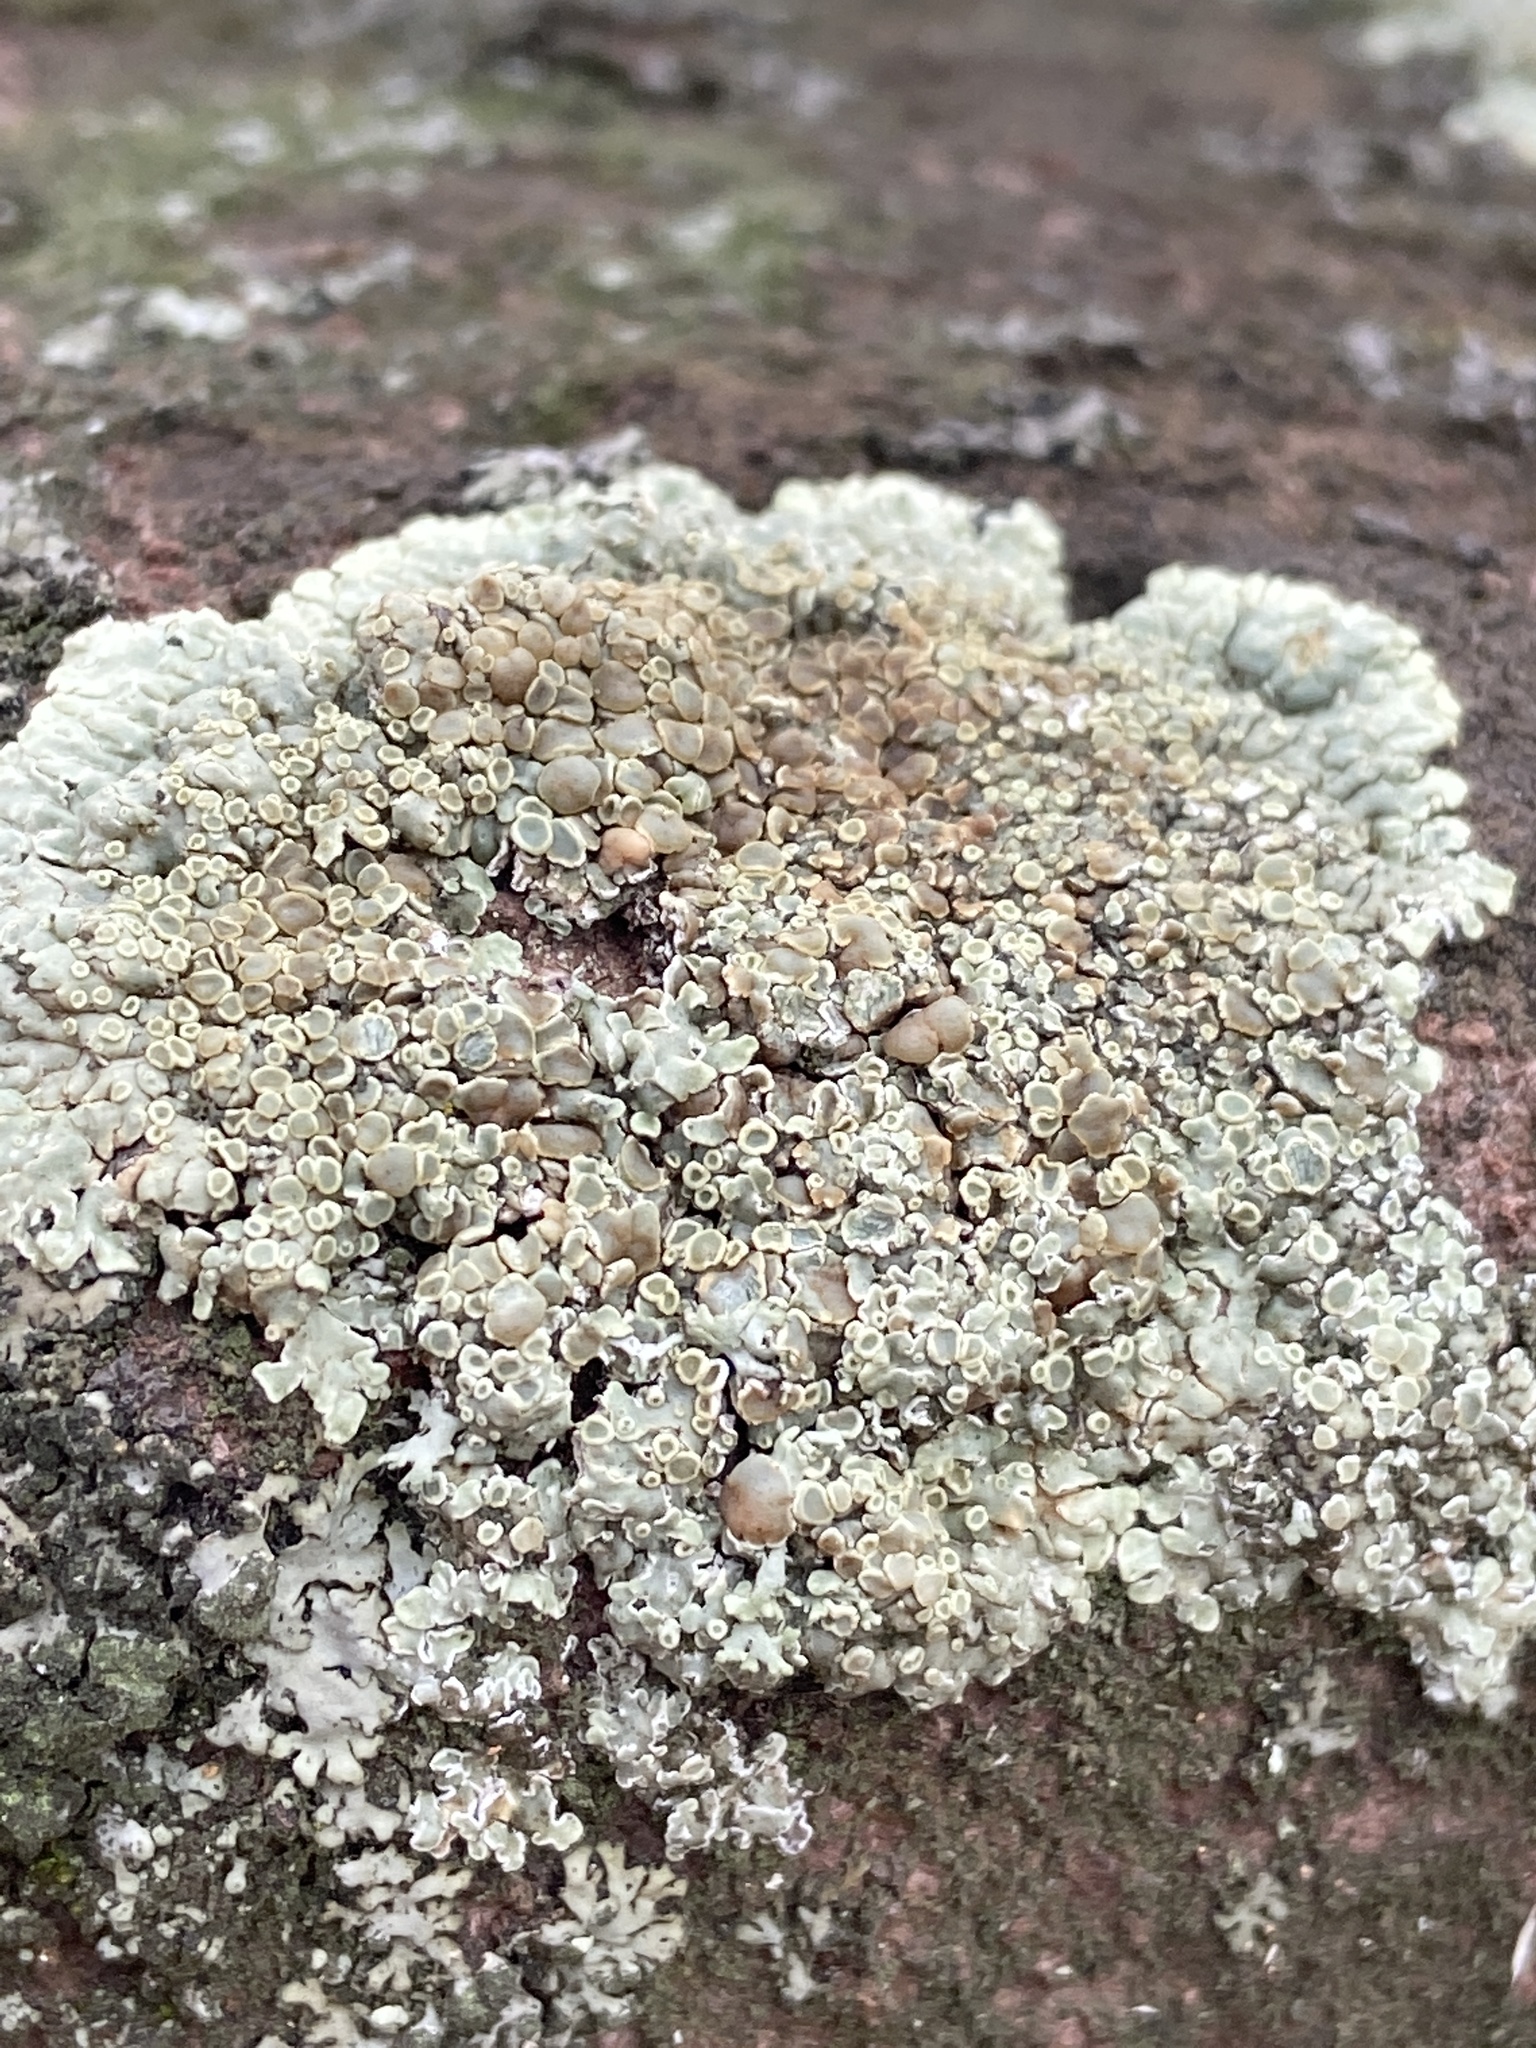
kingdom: Fungi
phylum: Ascomycota
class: Lecanoromycetes
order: Lecanorales
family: Lecanoraceae
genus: Protoparmeliopsis
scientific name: Protoparmeliopsis muralis
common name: Stonewall rim lichen
